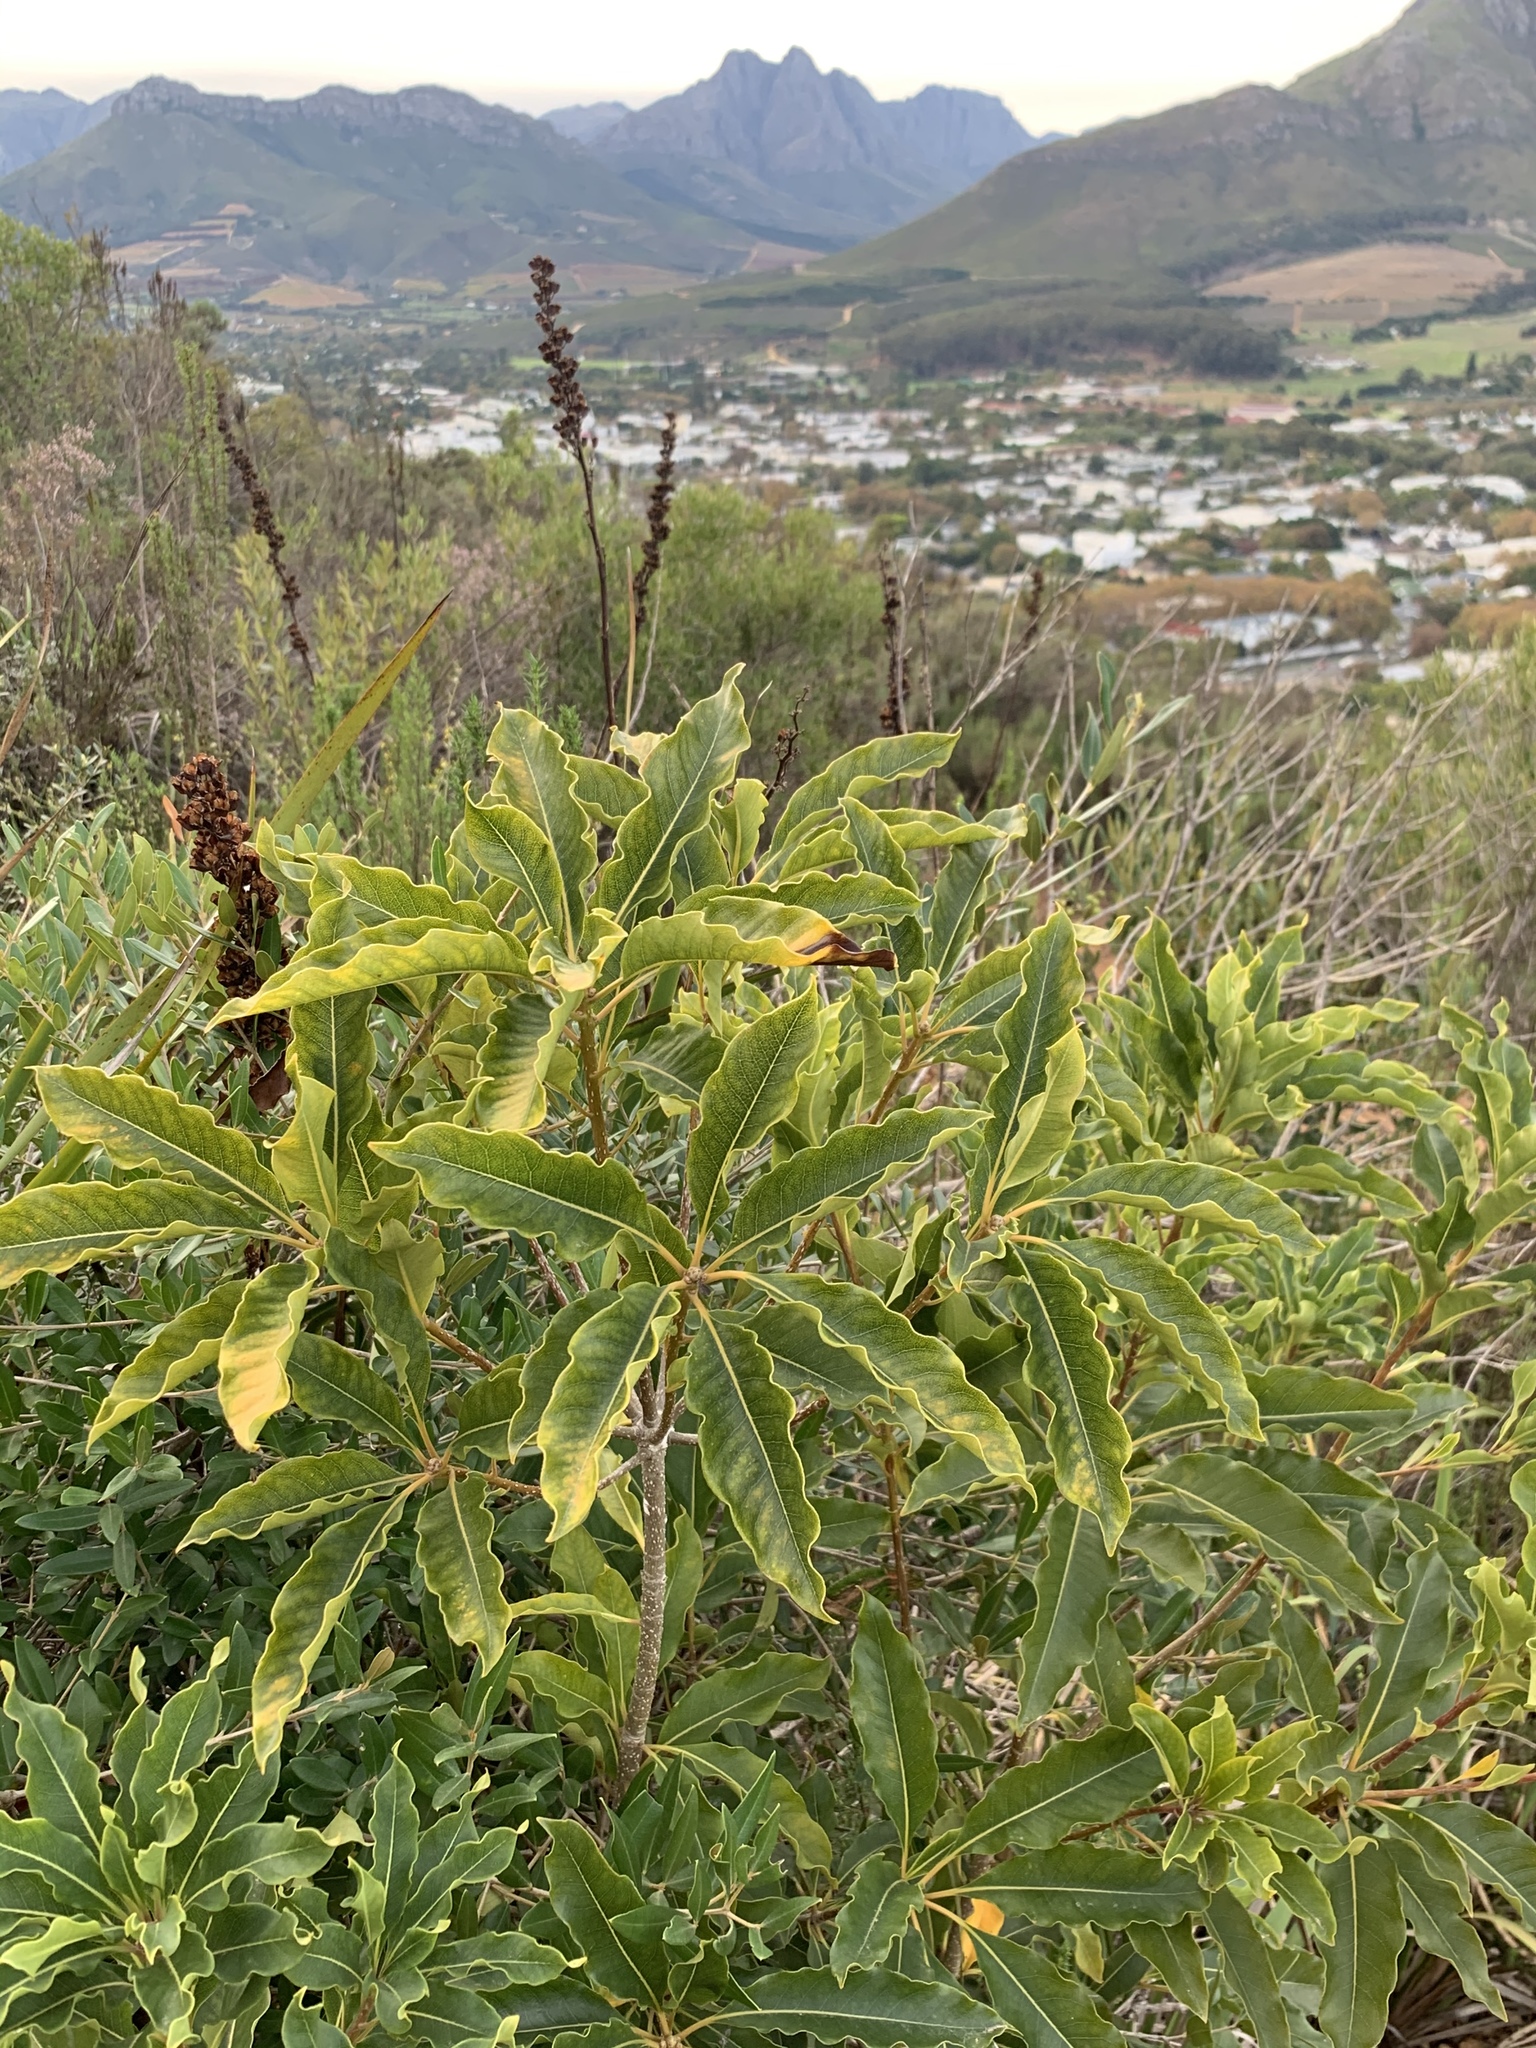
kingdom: Plantae
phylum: Tracheophyta
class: Magnoliopsida
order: Apiales
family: Pittosporaceae
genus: Pittosporum
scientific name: Pittosporum undulatum
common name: Australian cheesewood
